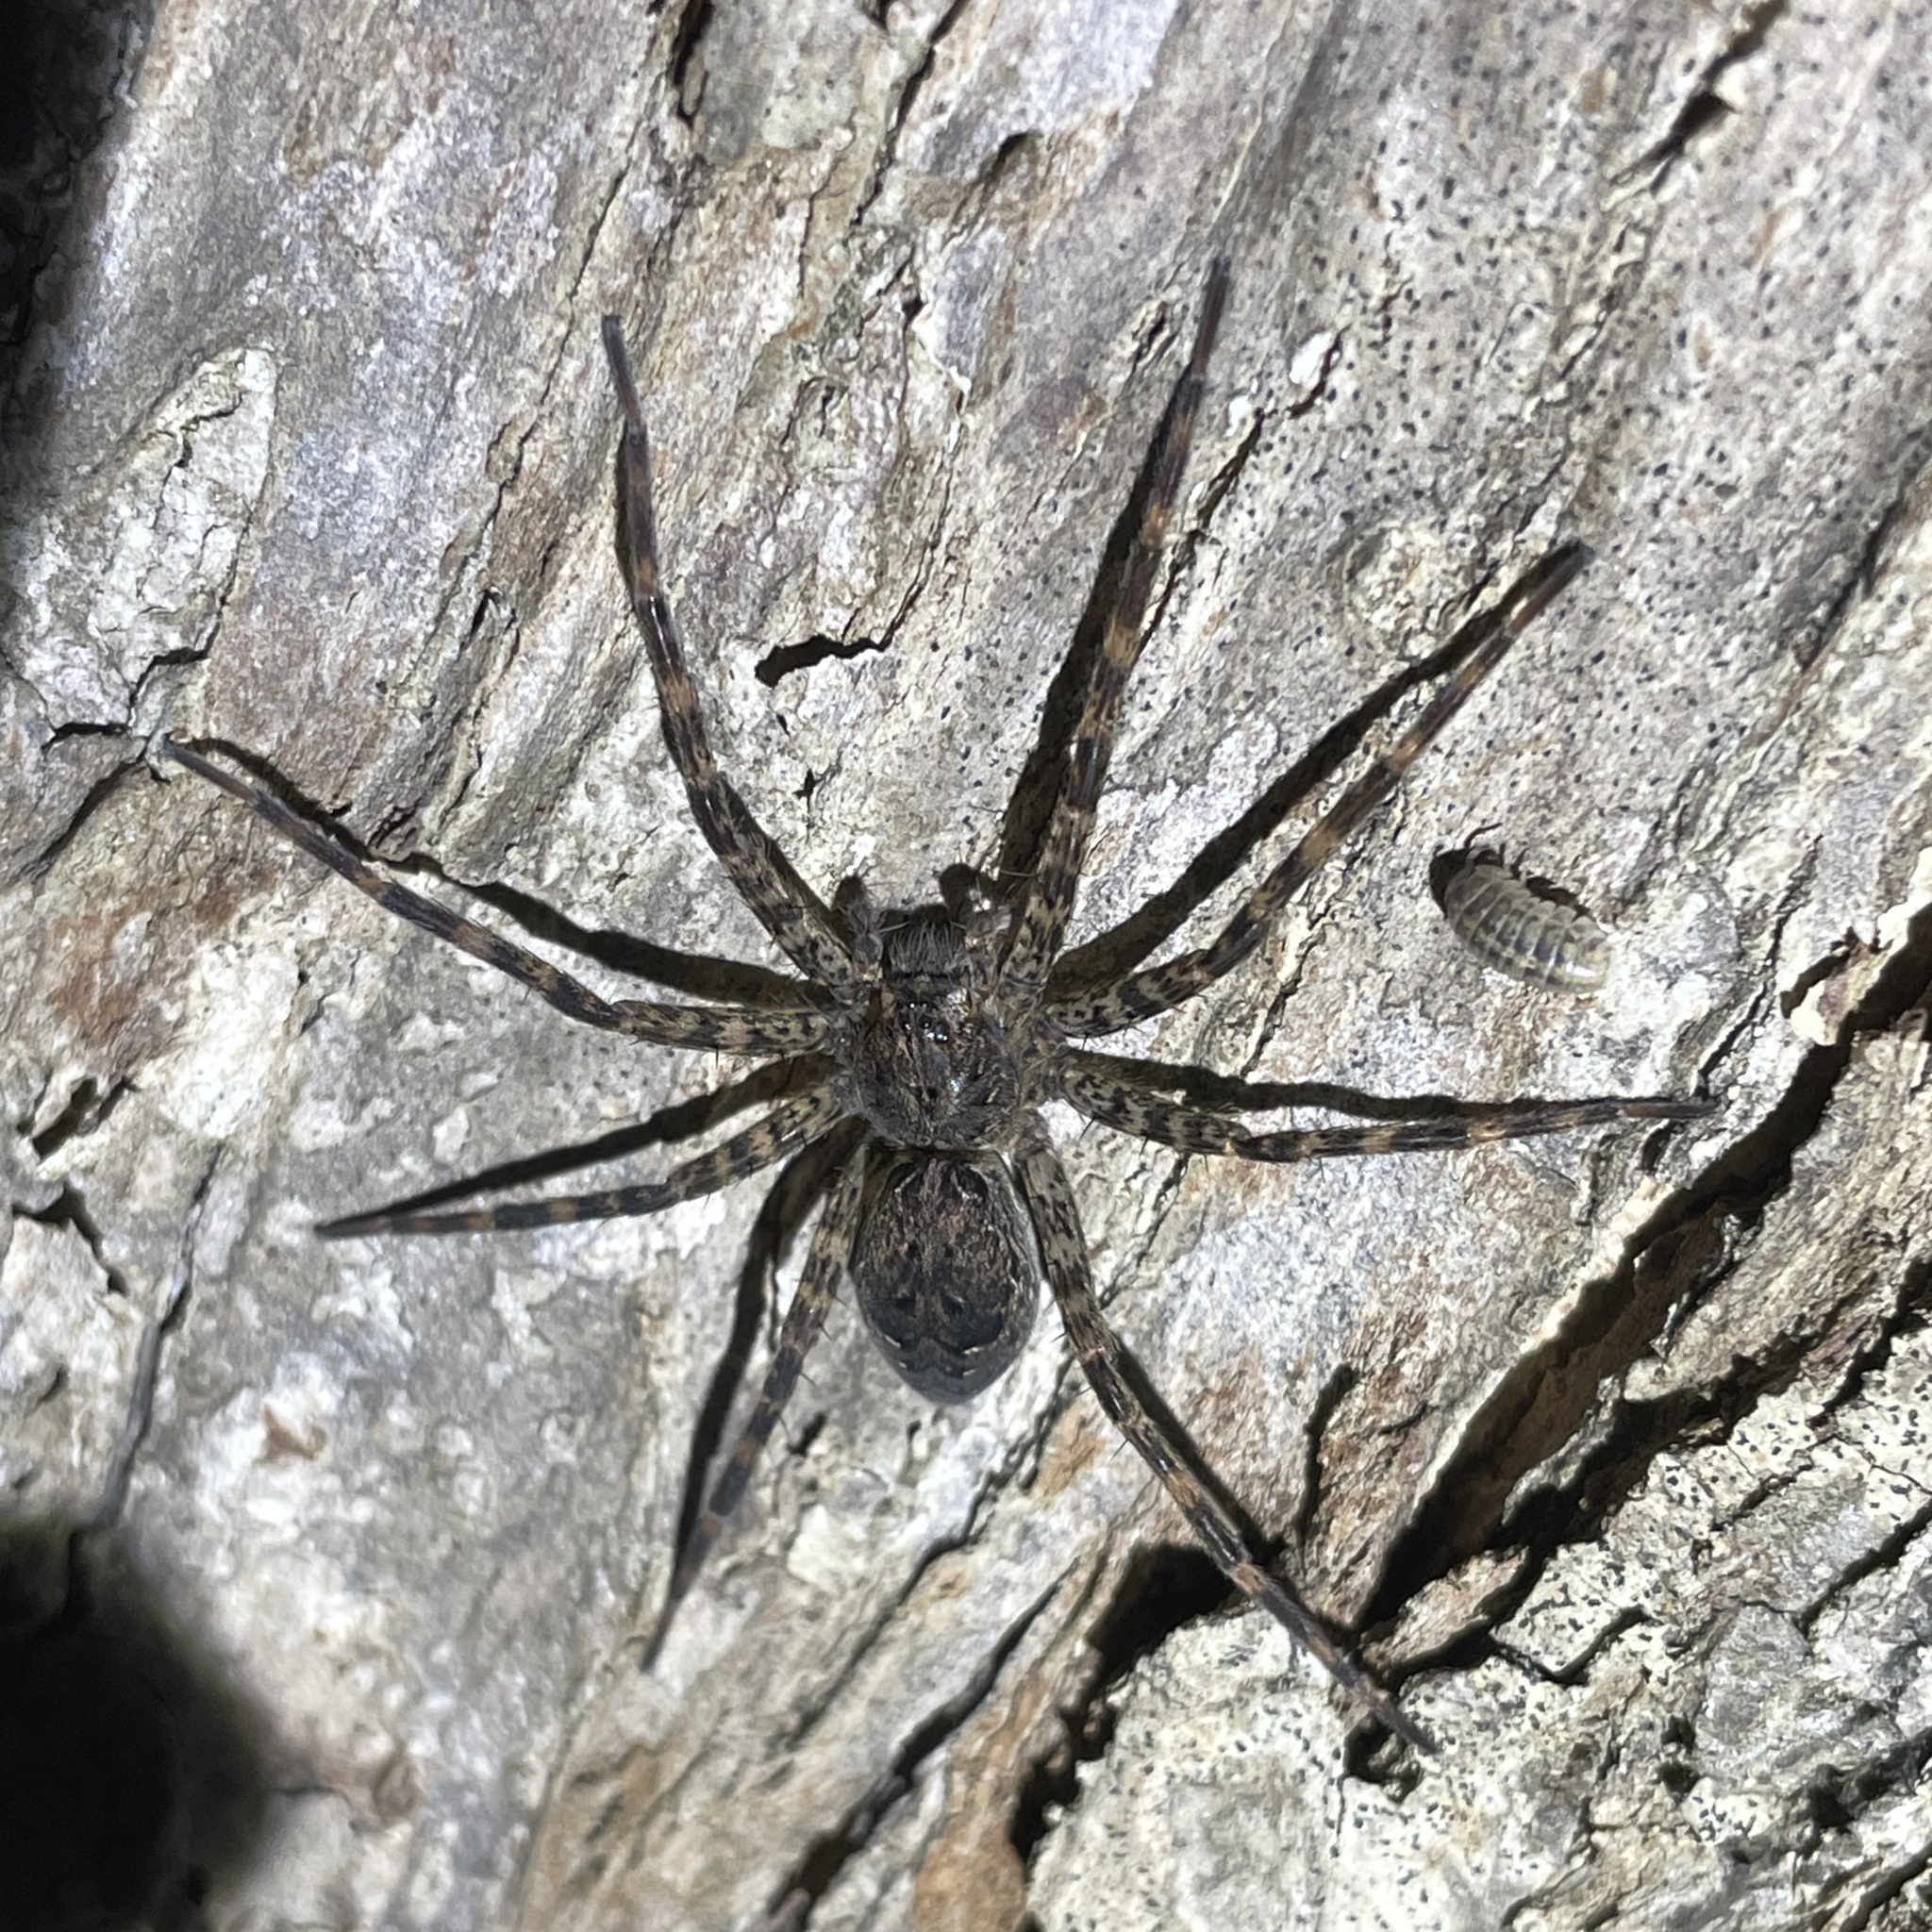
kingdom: Animalia
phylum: Arthropoda
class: Arachnida
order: Araneae
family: Pisauridae
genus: Dolomedes
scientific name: Dolomedes tenebrosus
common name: Dark fishing spider
